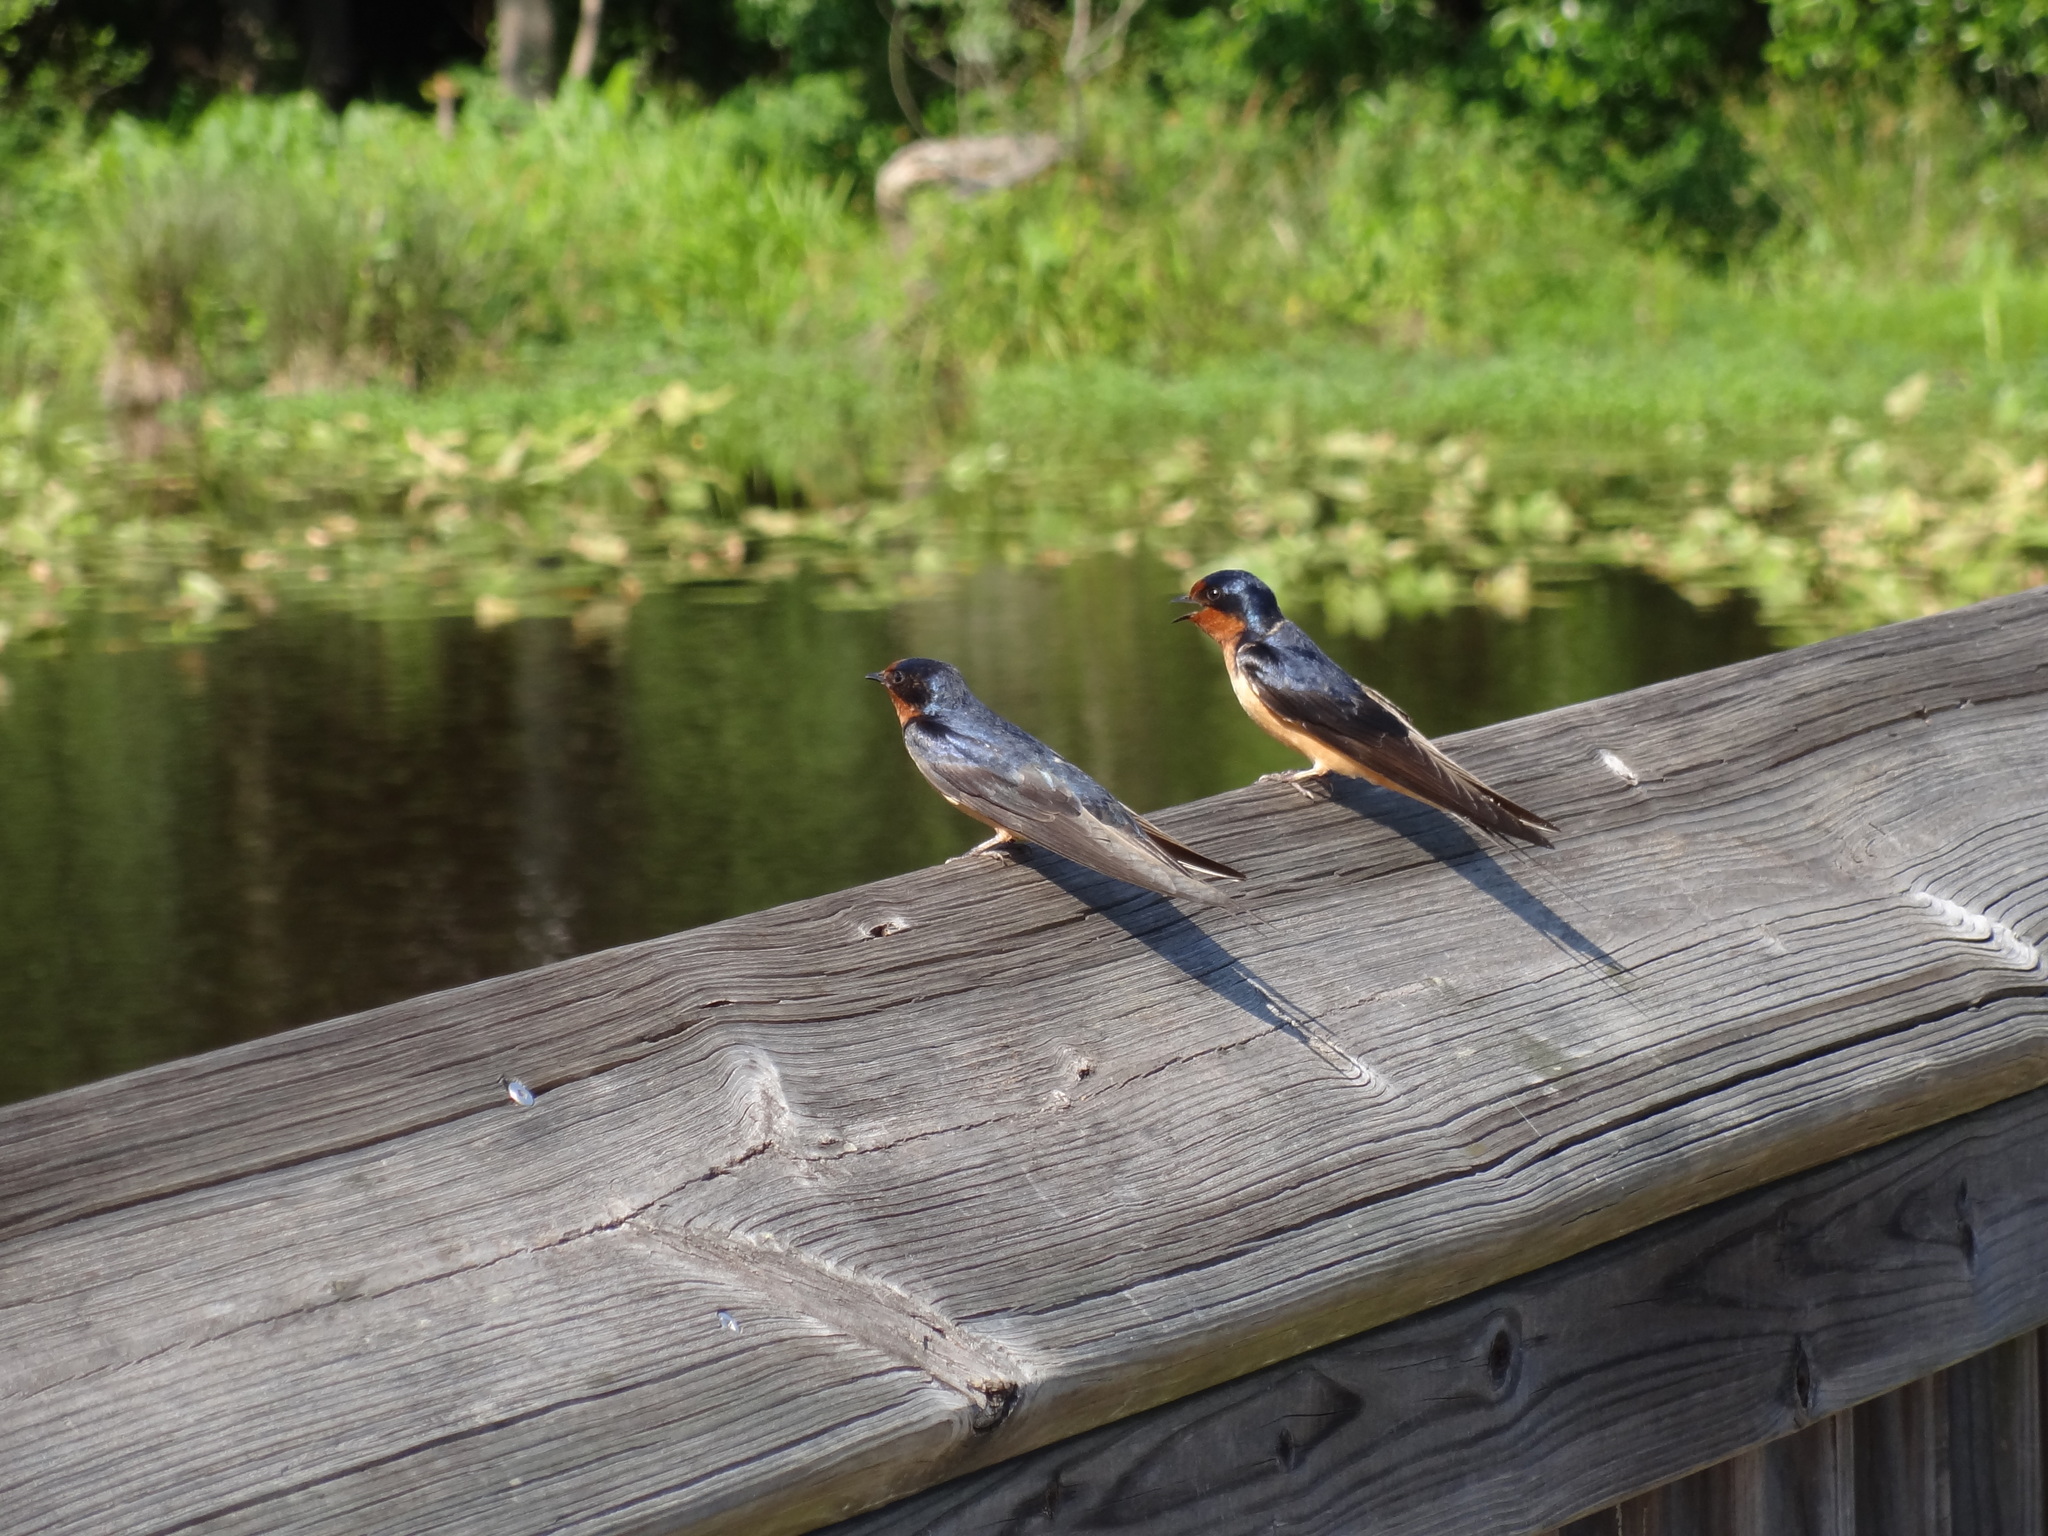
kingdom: Animalia
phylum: Chordata
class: Aves
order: Passeriformes
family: Hirundinidae
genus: Hirundo
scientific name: Hirundo rustica
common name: Barn swallow
